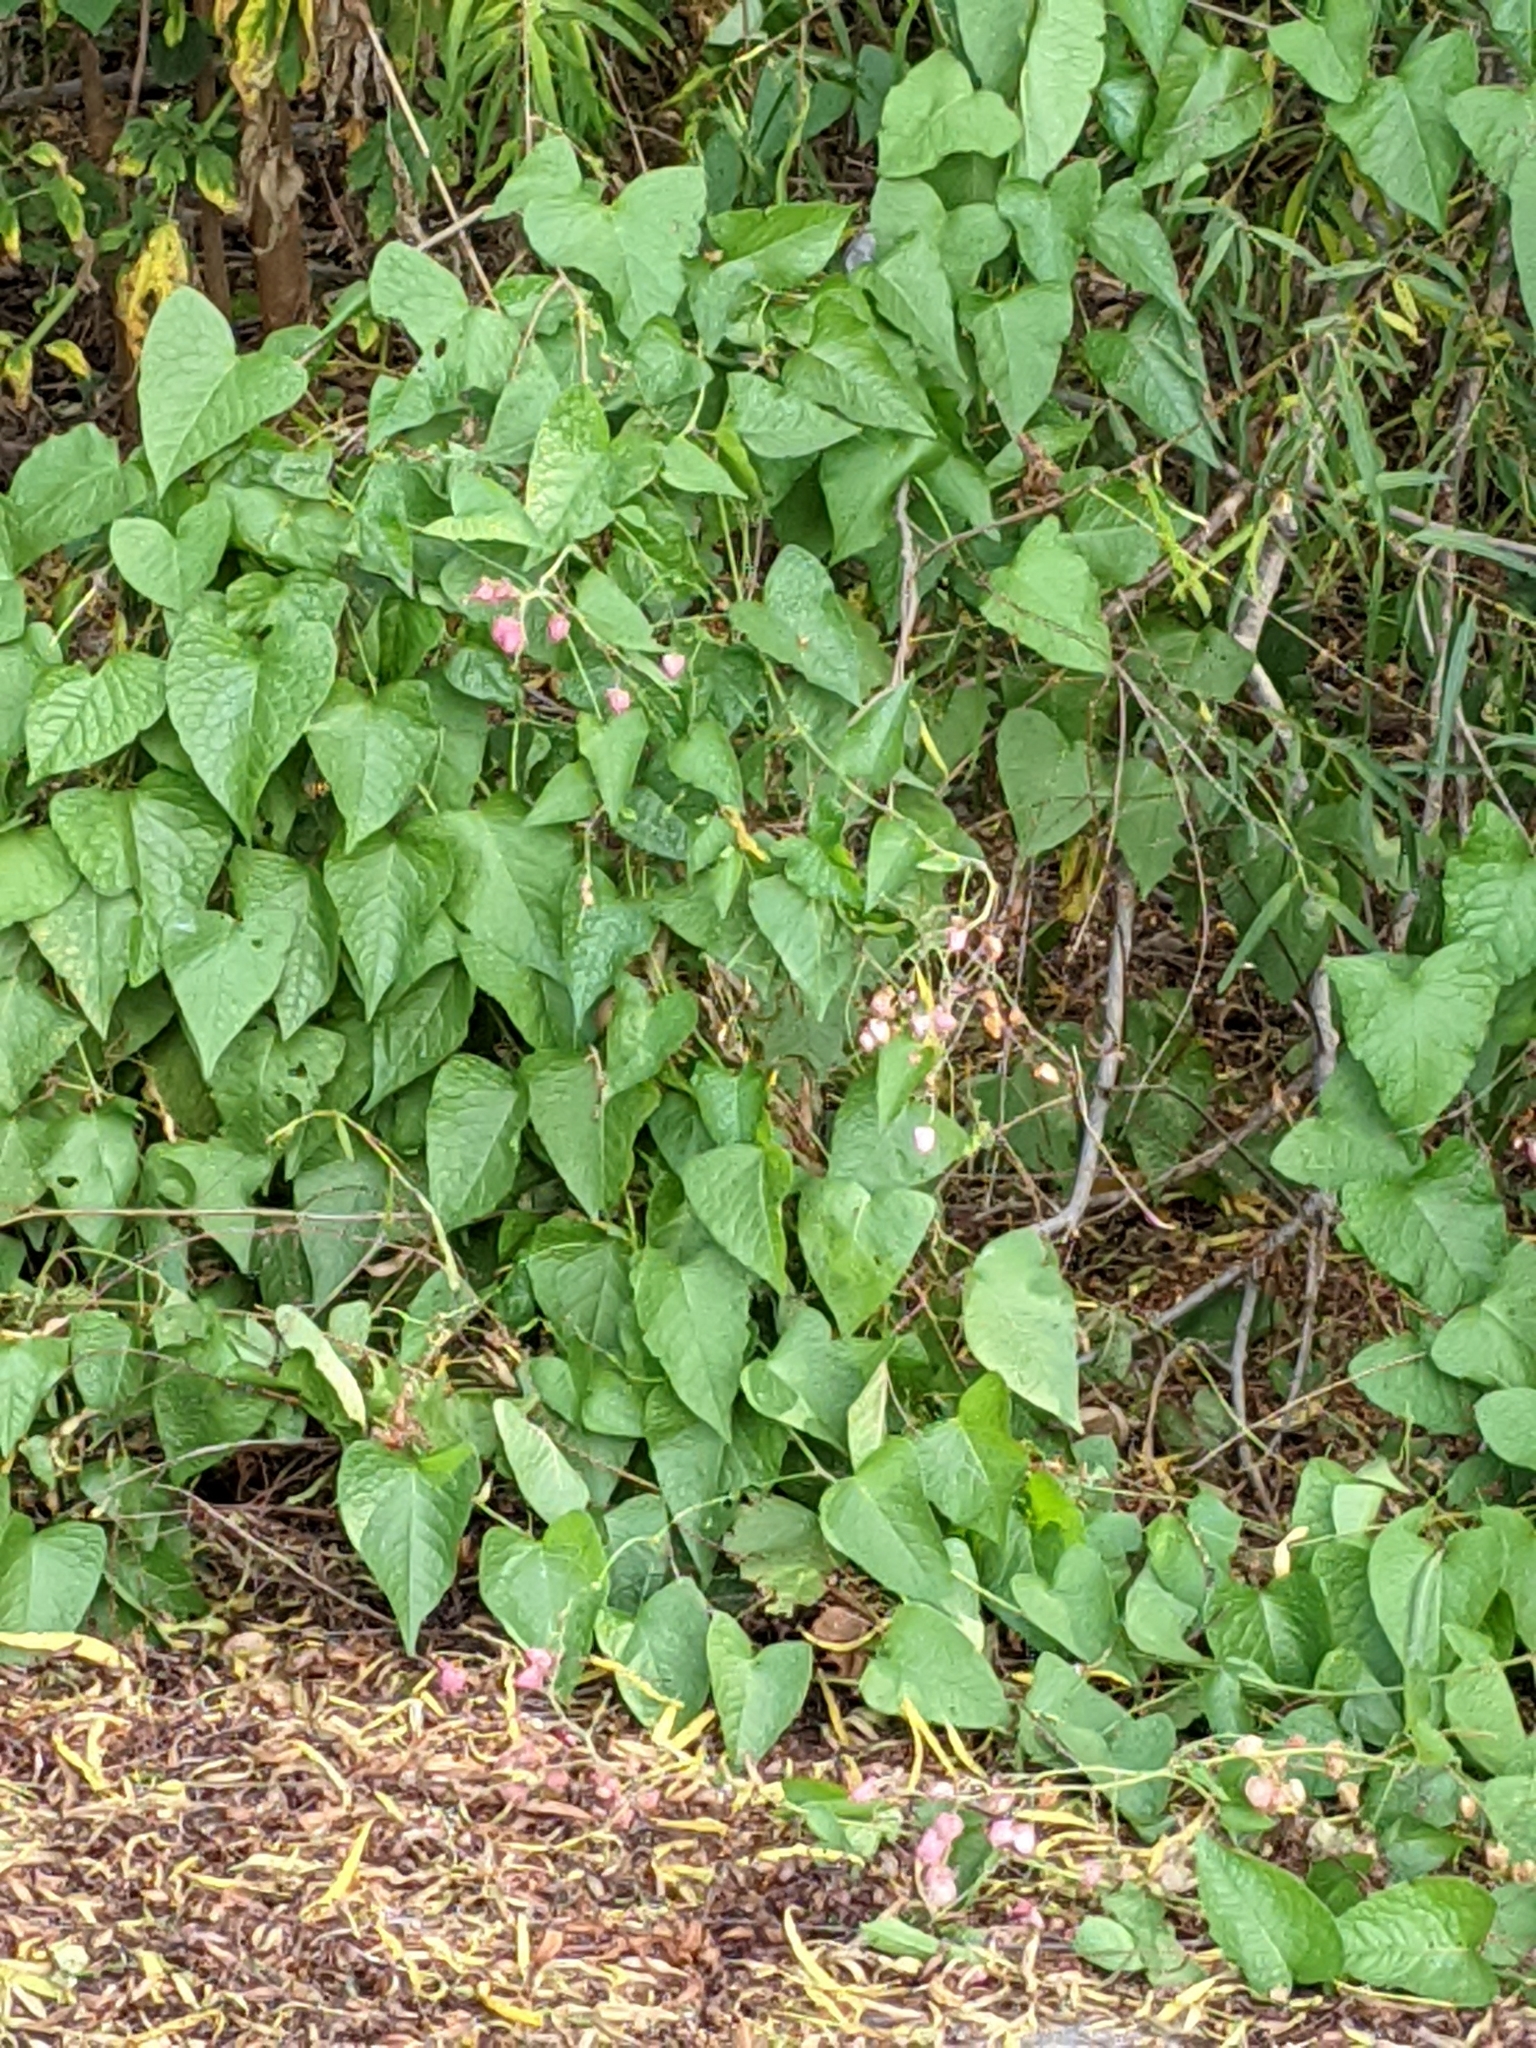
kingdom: Plantae
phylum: Tracheophyta
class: Magnoliopsida
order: Caryophyllales
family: Polygonaceae
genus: Antigonon
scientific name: Antigonon leptopus
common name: Coral vine
